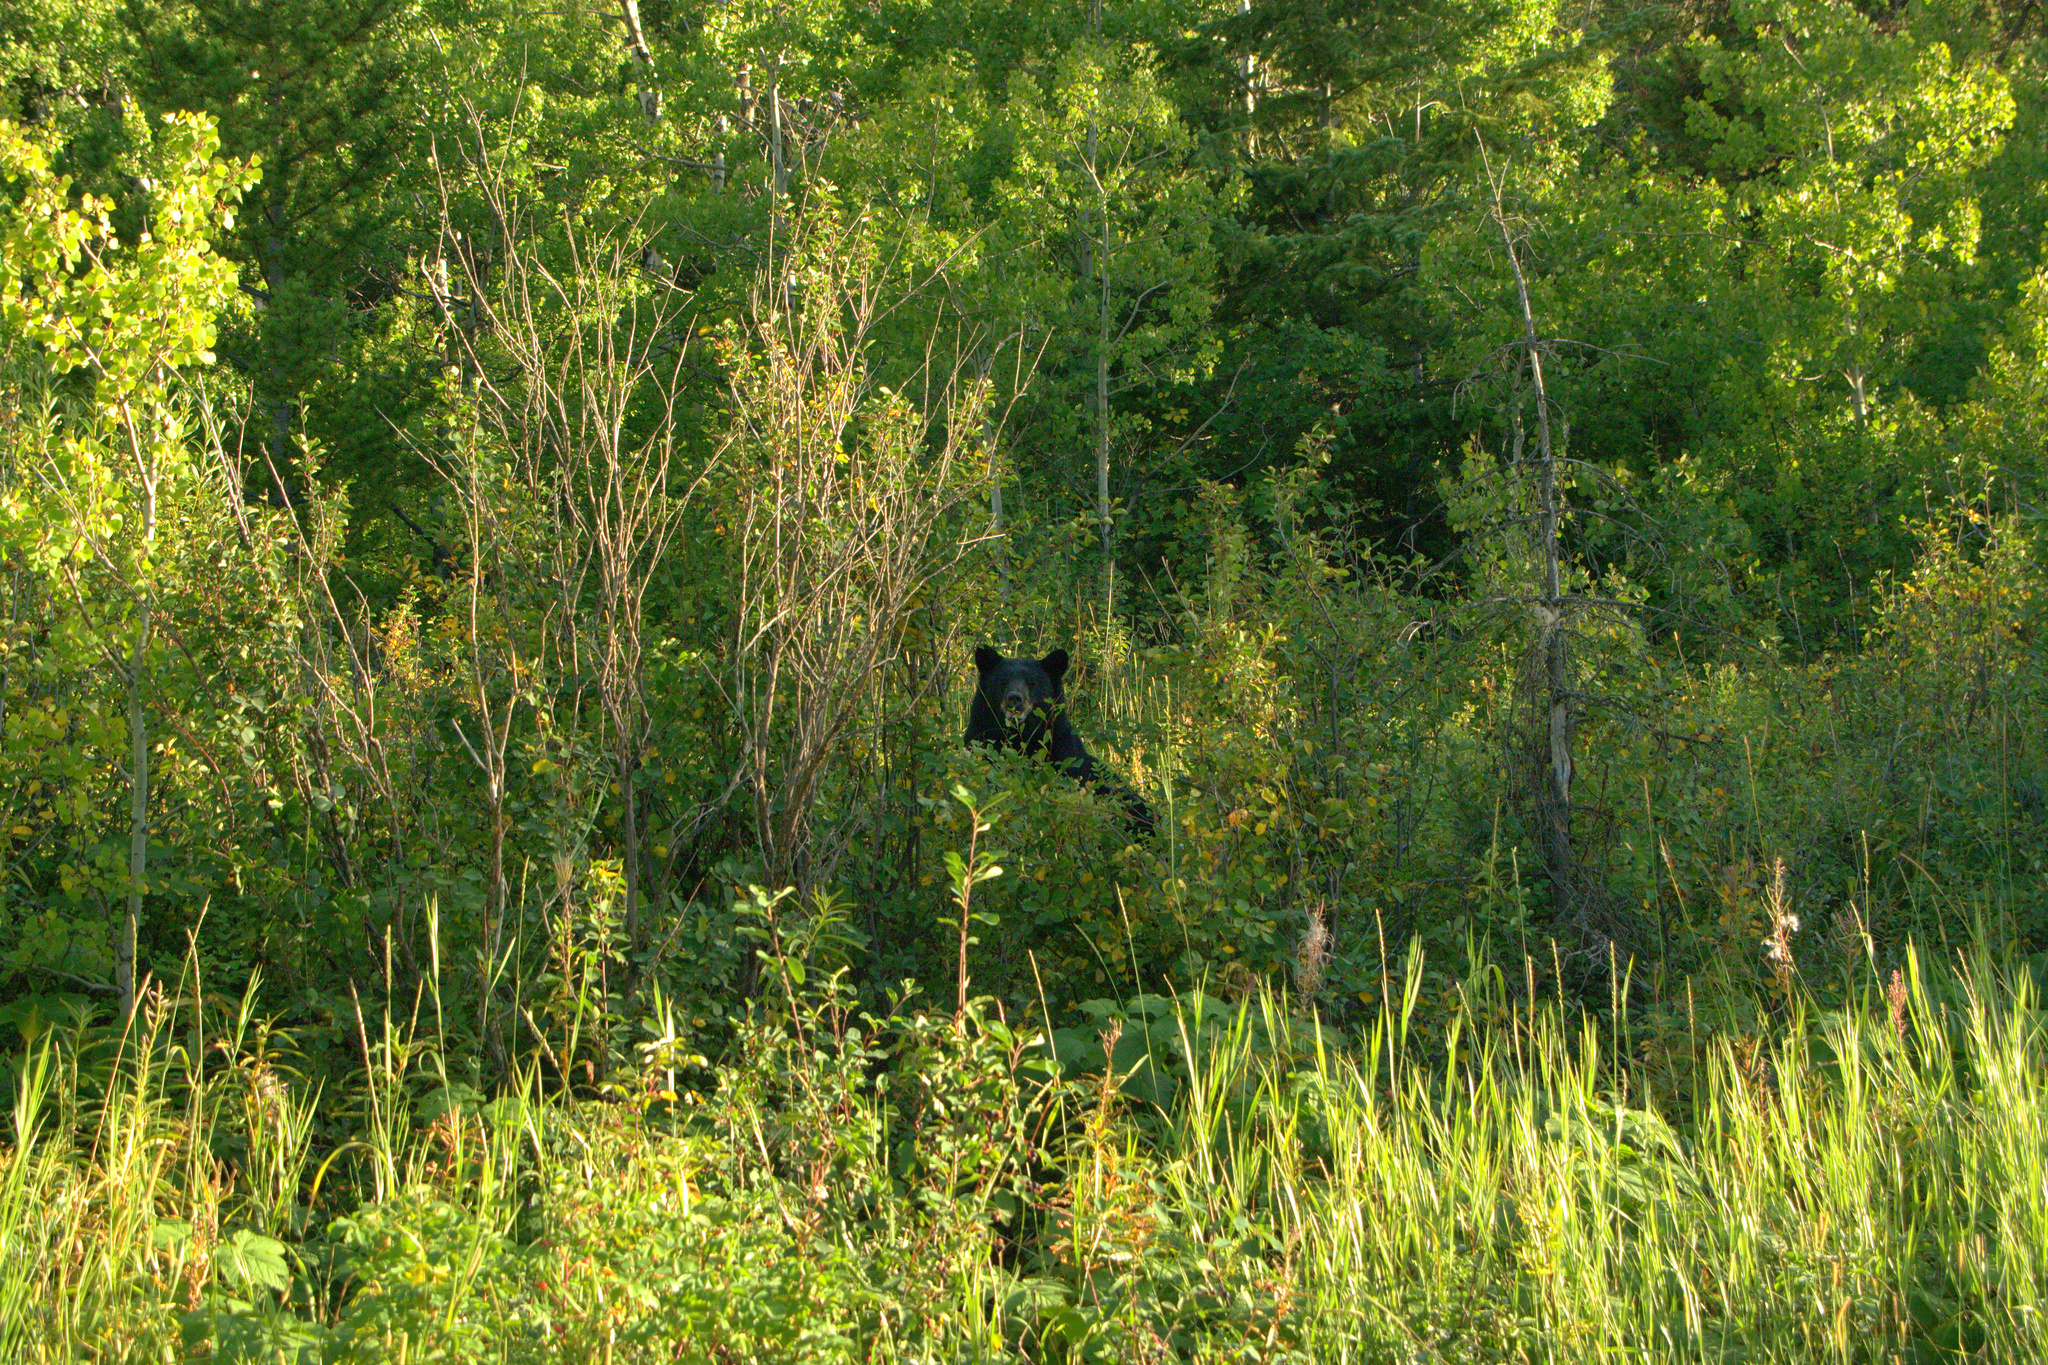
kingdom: Animalia
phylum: Chordata
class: Mammalia
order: Carnivora
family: Ursidae
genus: Ursus
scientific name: Ursus americanus
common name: American black bear
